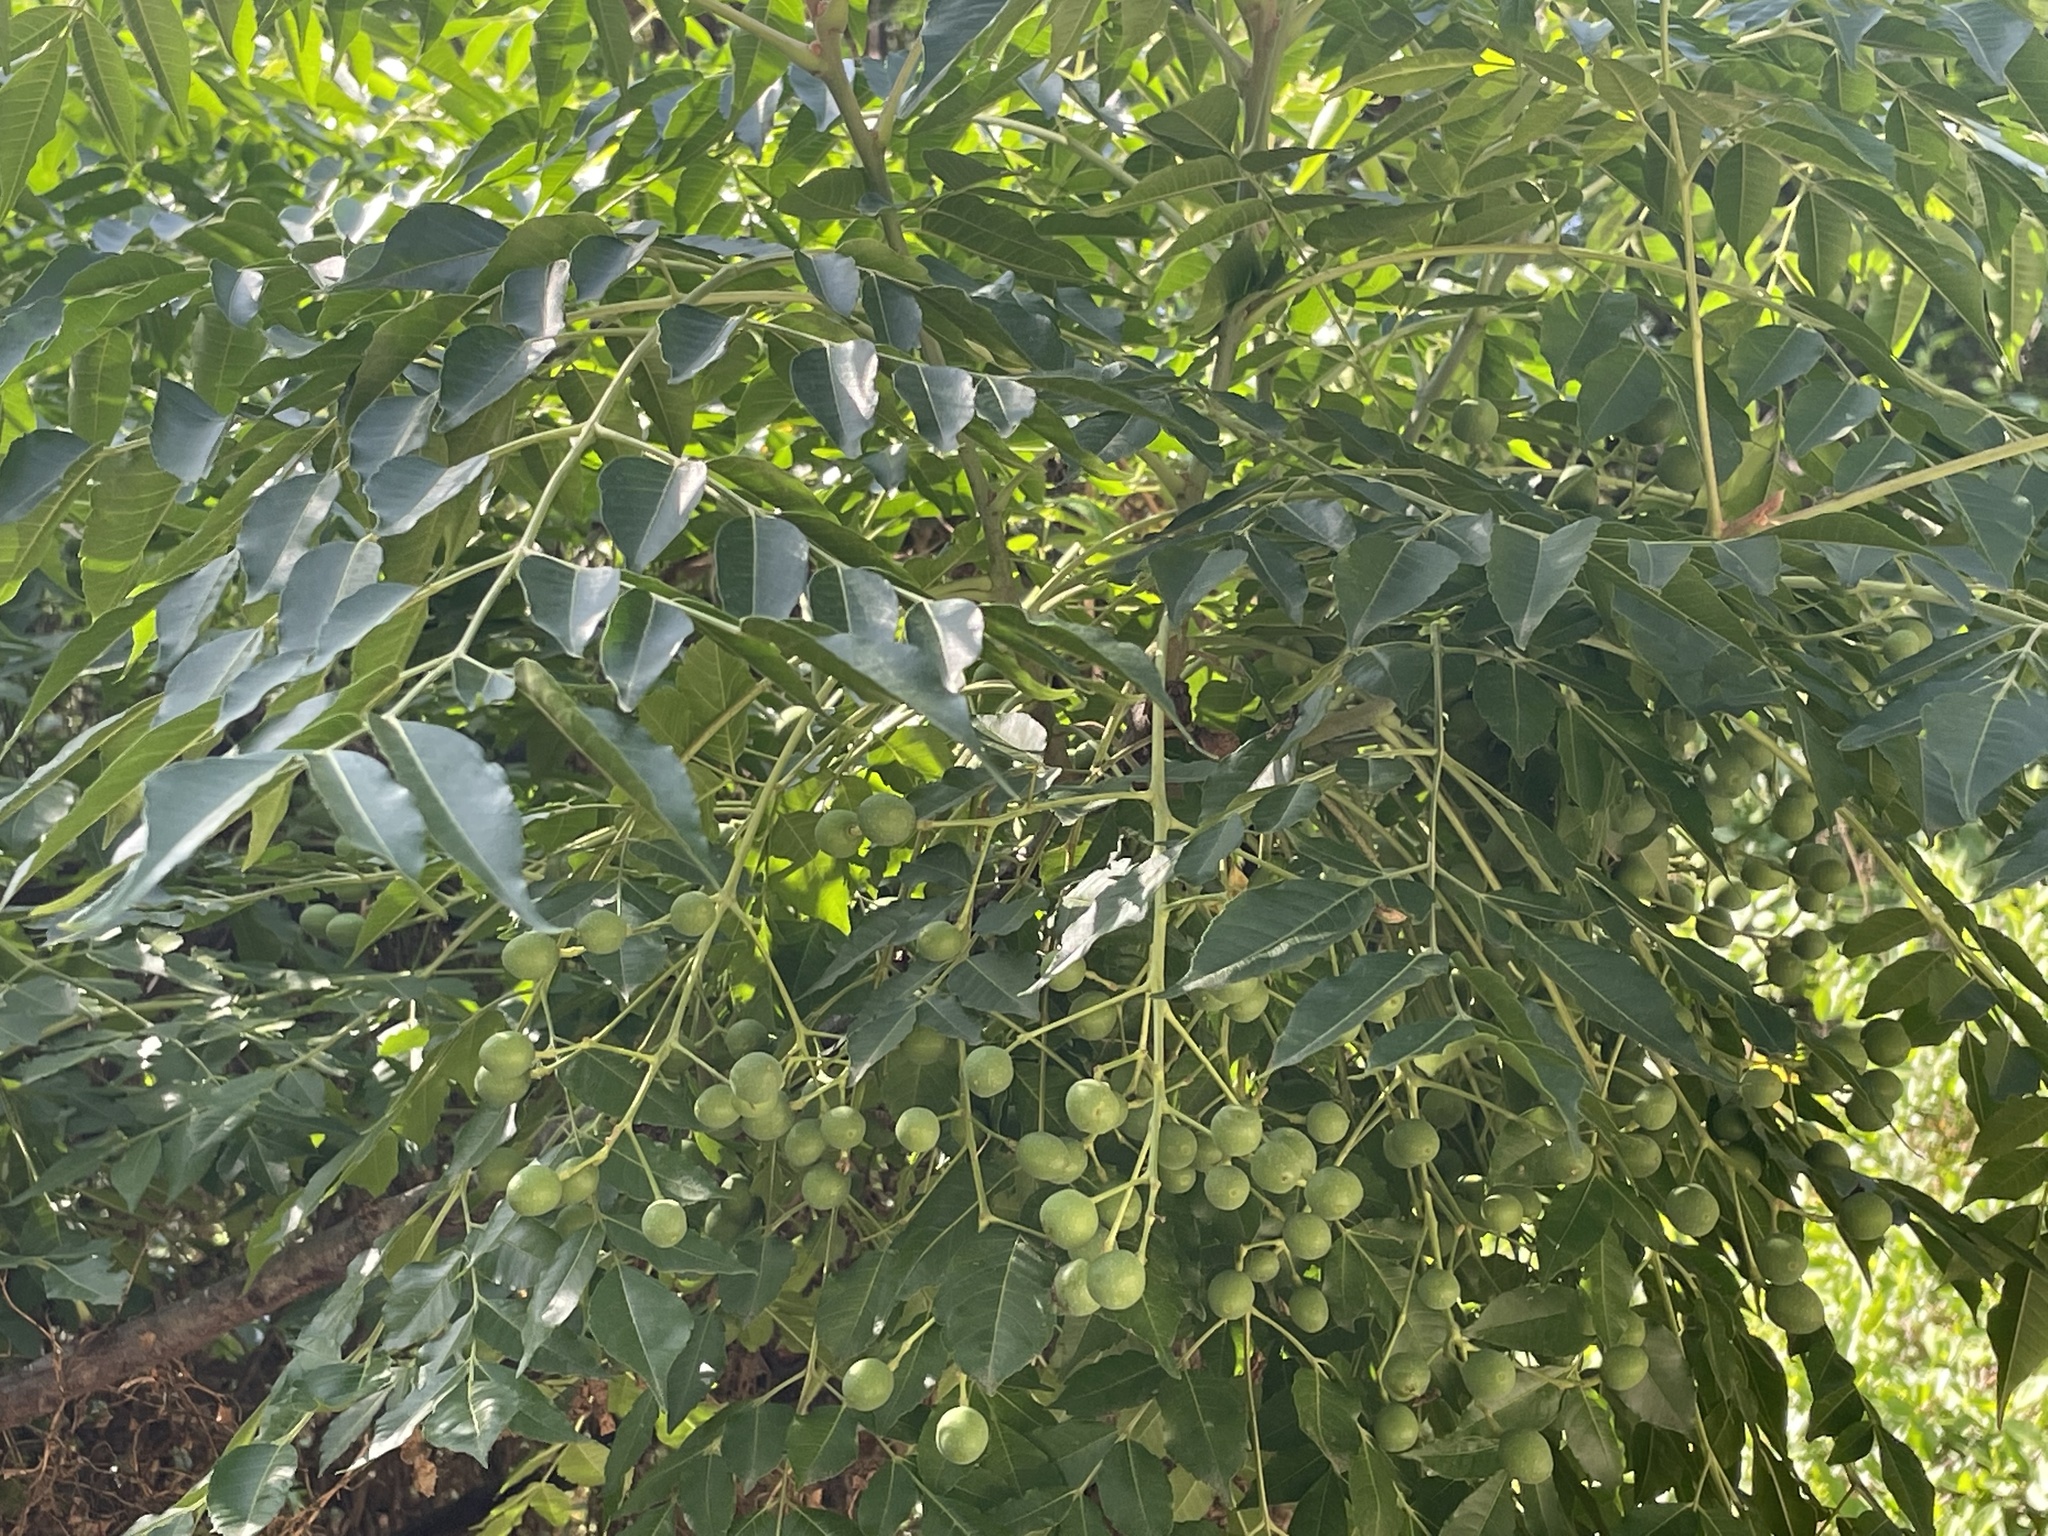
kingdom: Plantae
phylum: Tracheophyta
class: Magnoliopsida
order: Sapindales
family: Meliaceae
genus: Melia
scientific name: Melia azedarach
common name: Chinaberrytree
